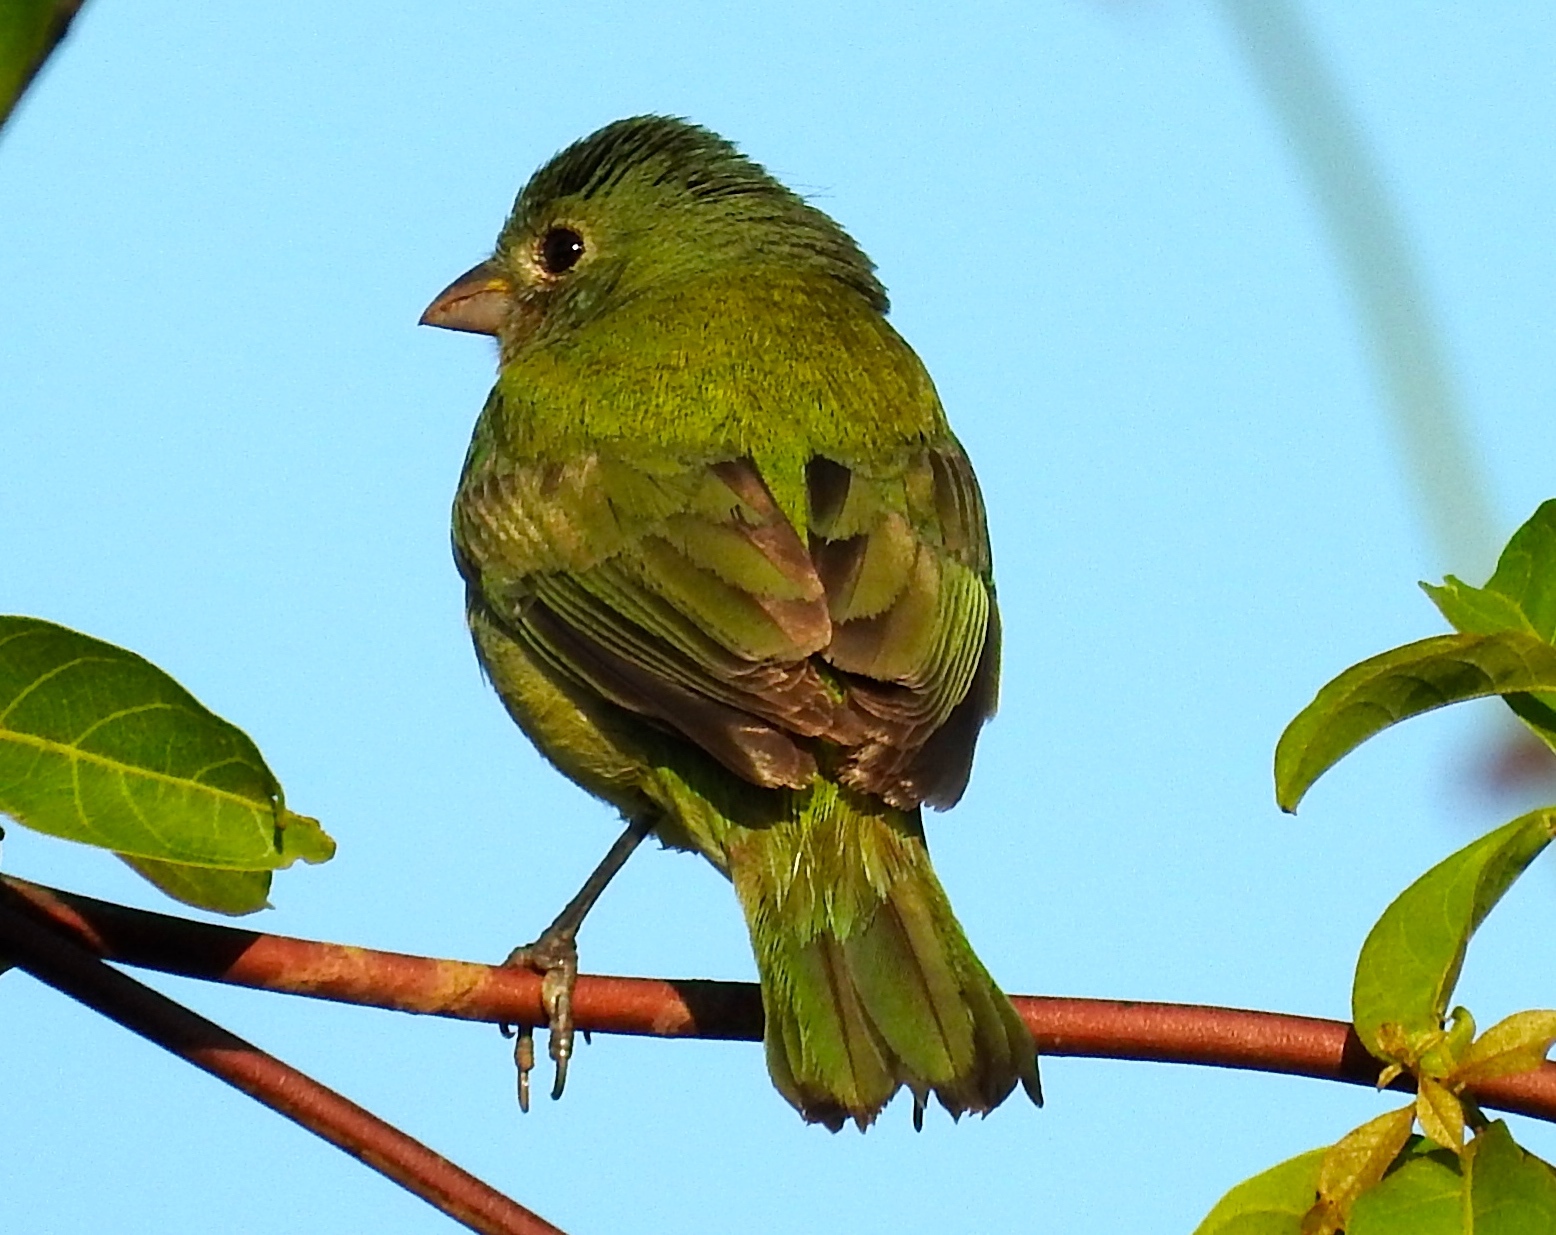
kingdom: Animalia
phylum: Chordata
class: Aves
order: Passeriformes
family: Cardinalidae
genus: Passerina
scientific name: Passerina ciris
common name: Painted bunting
